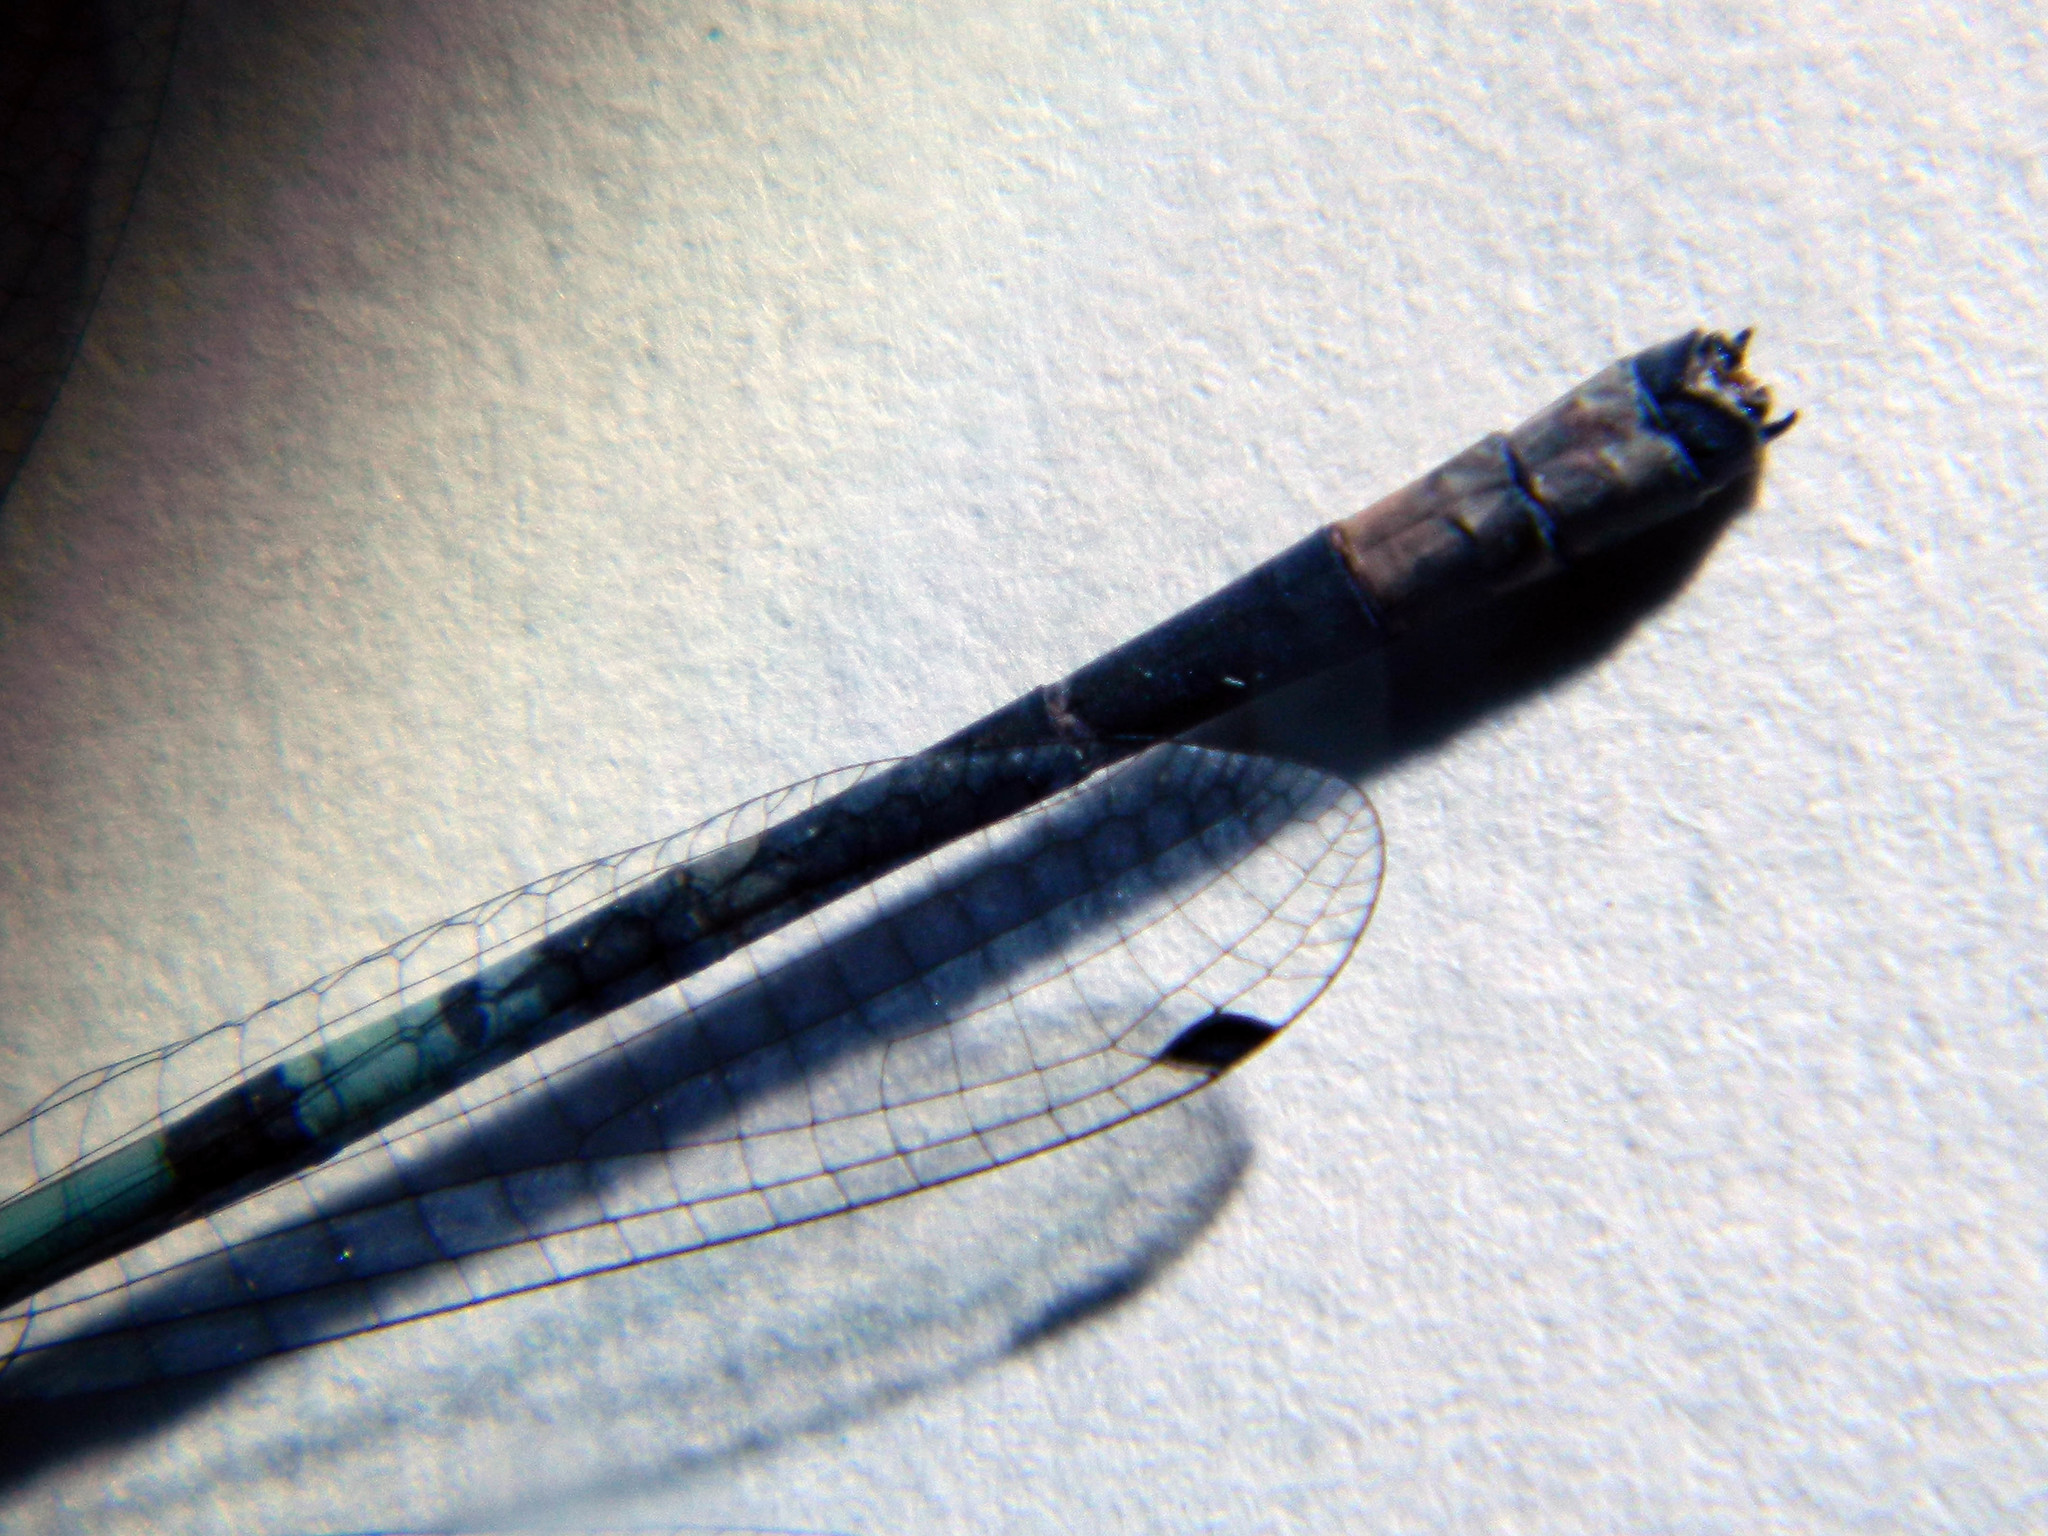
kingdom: Animalia
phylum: Arthropoda
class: Insecta
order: Odonata
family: Coenagrionidae
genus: Enallagma
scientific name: Enallagma annexum
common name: Northern bluet
